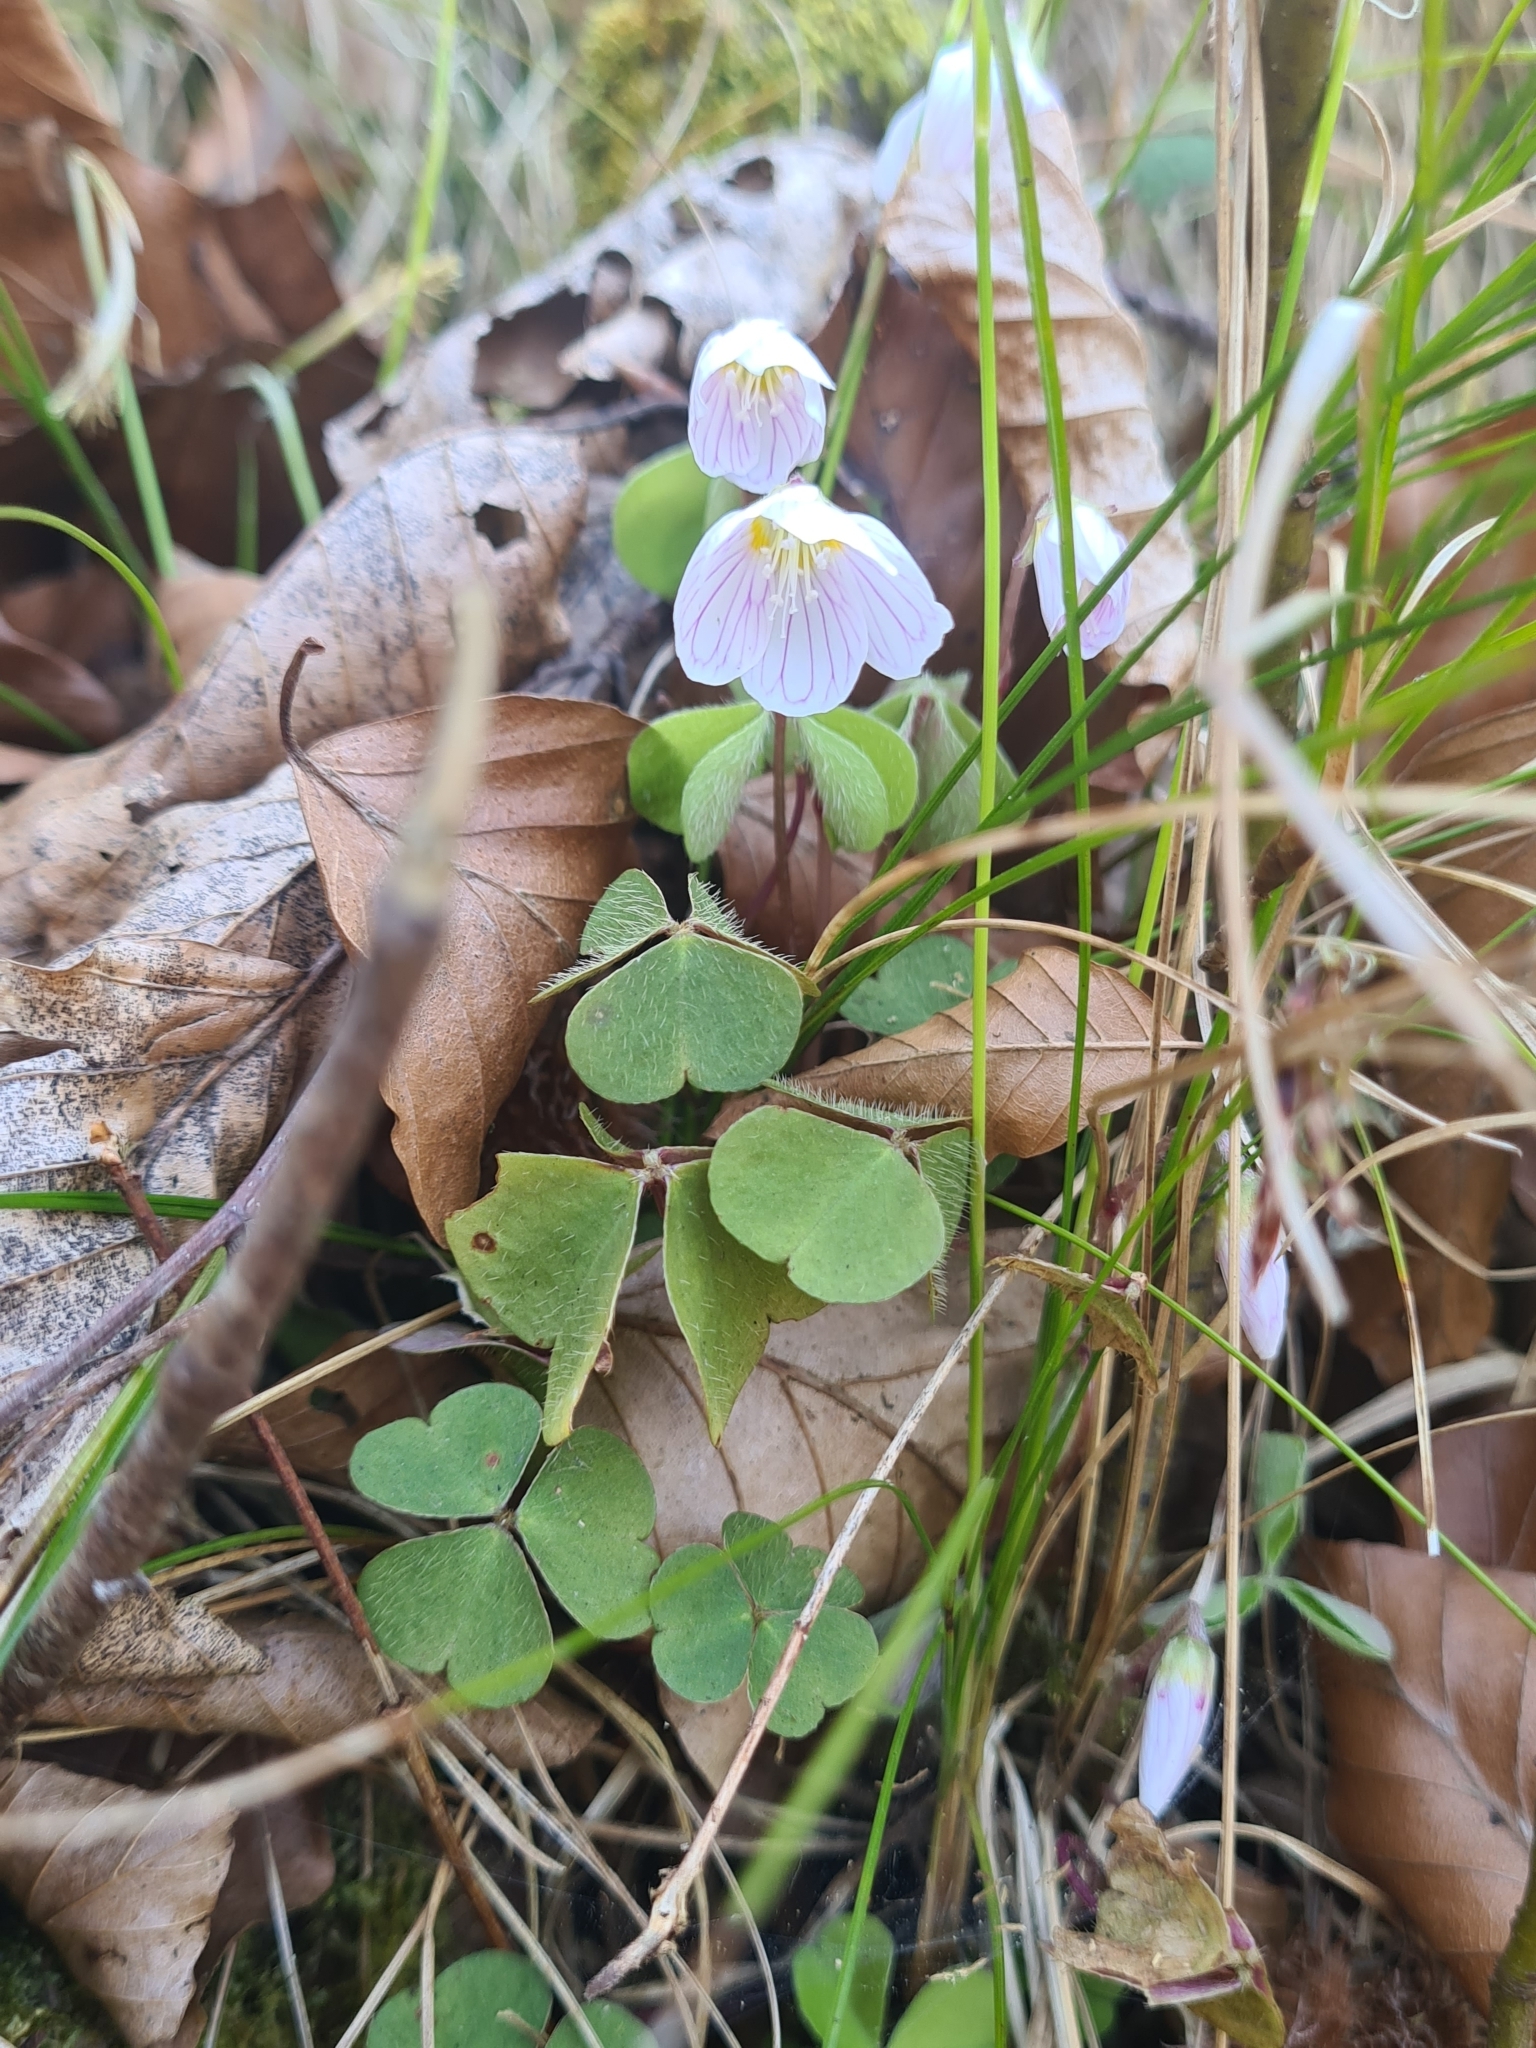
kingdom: Plantae
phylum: Tracheophyta
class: Magnoliopsida
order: Oxalidales
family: Oxalidaceae
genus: Oxalis
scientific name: Oxalis acetosella
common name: Wood-sorrel
